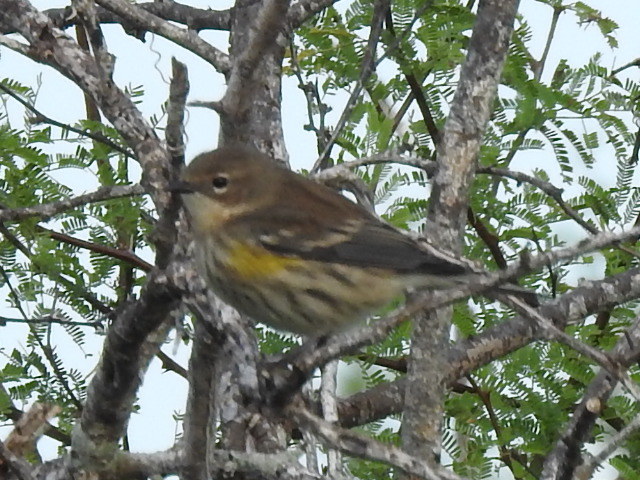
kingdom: Animalia
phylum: Chordata
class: Aves
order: Passeriformes
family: Parulidae
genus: Setophaga
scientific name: Setophaga coronata
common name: Myrtle warbler
